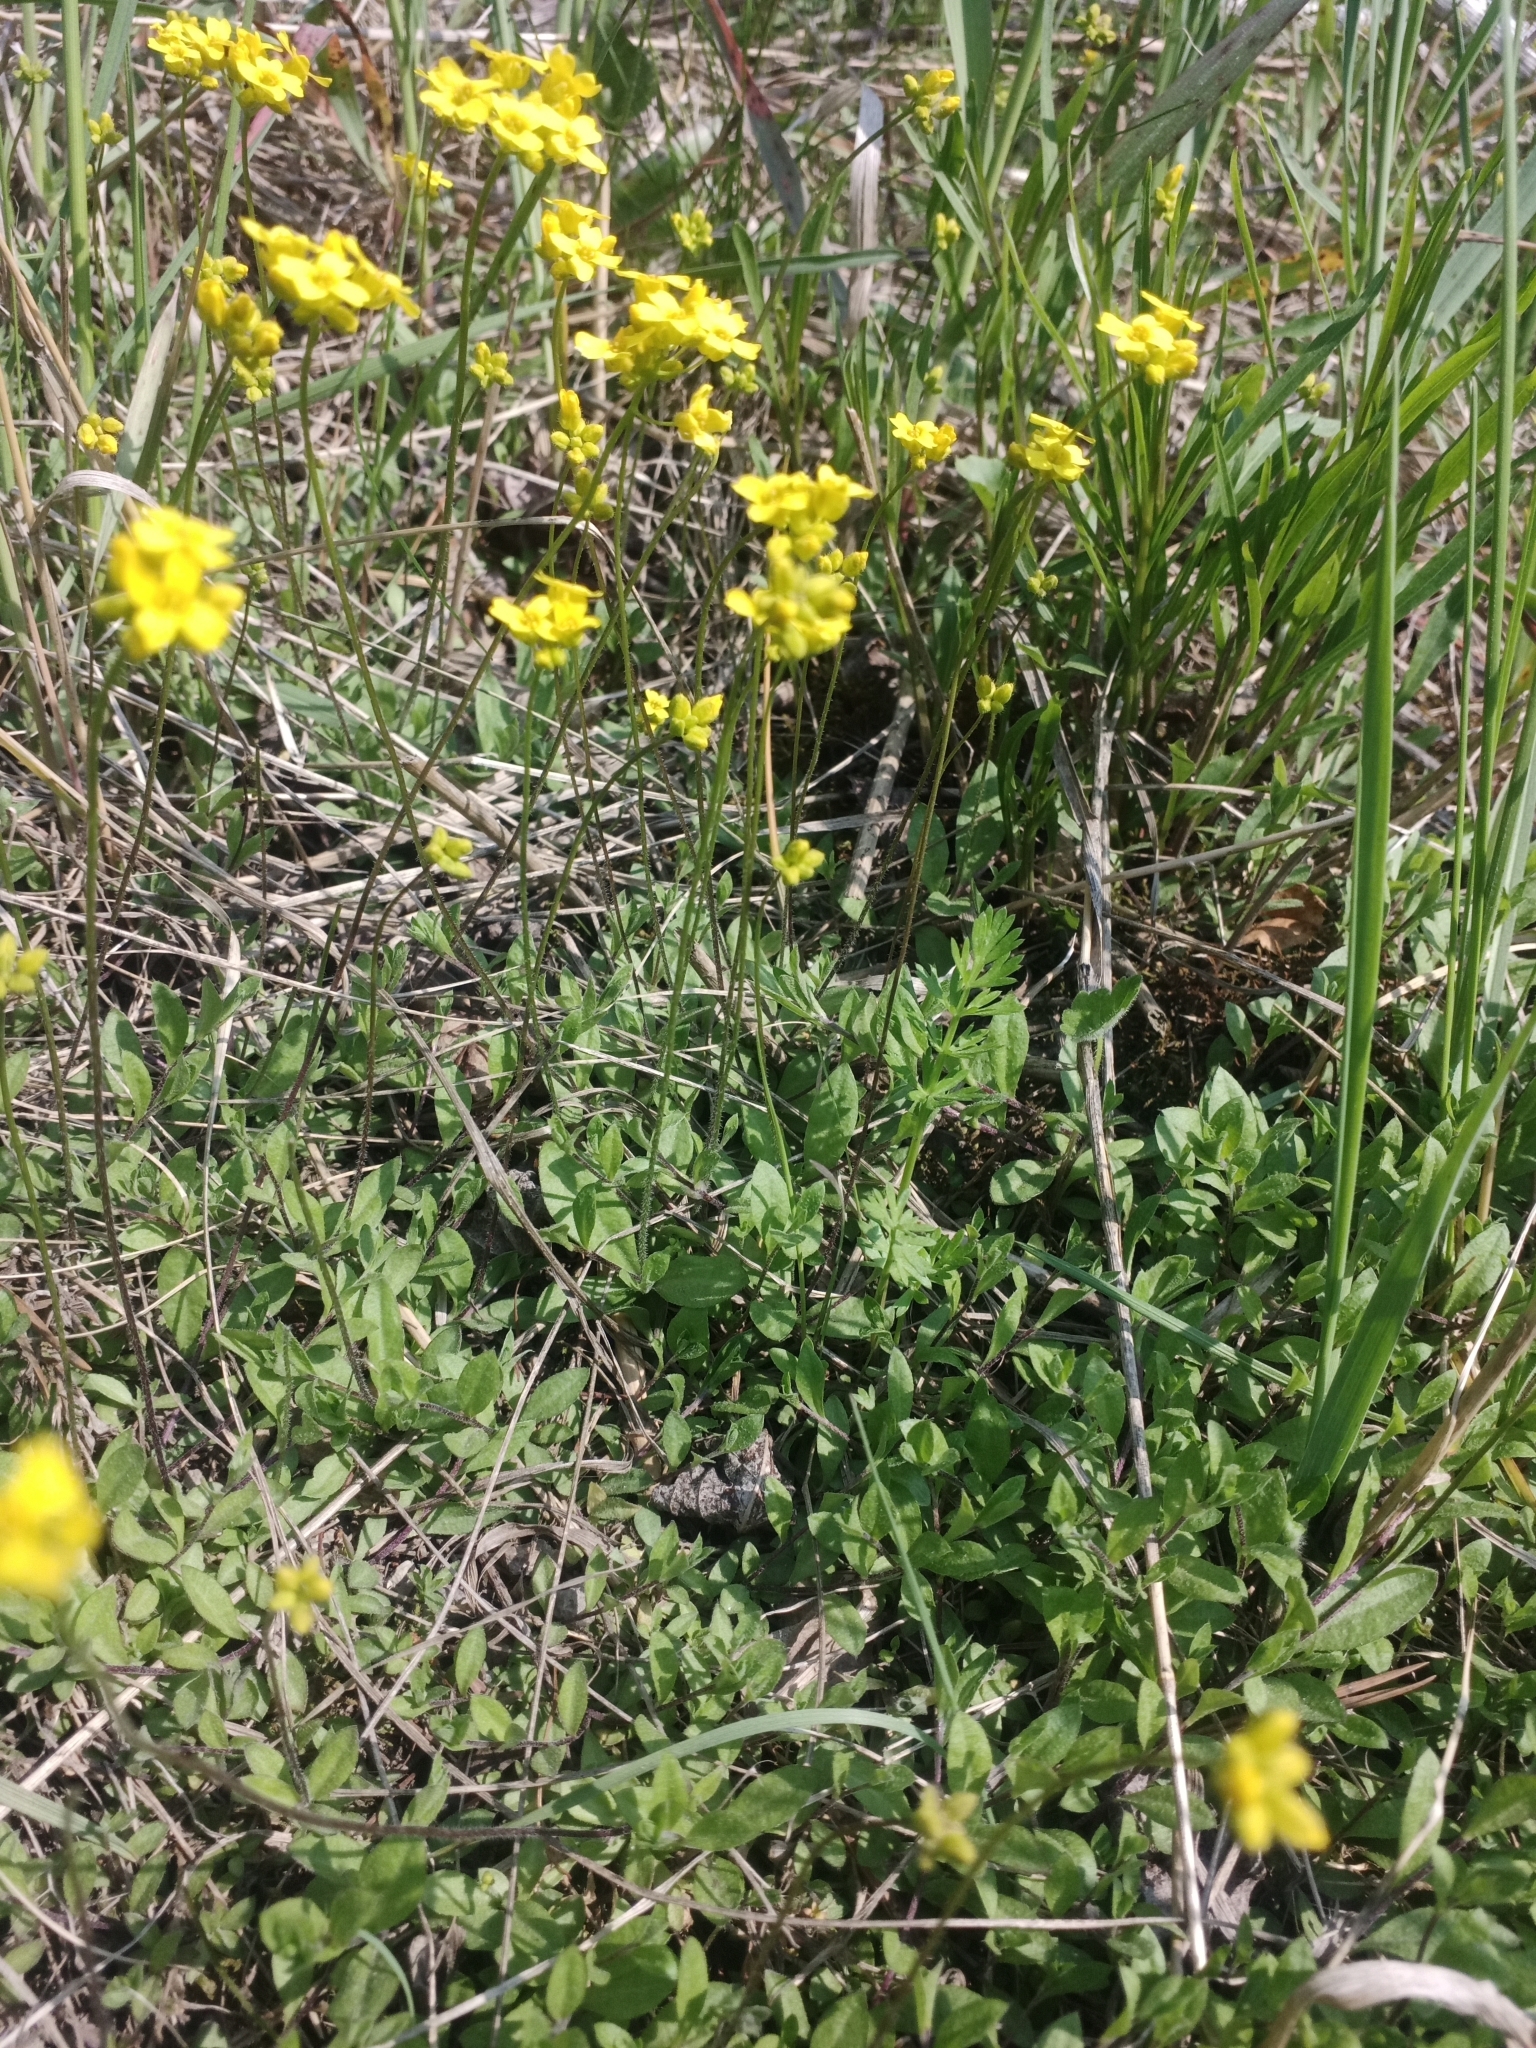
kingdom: Plantae
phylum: Tracheophyta
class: Magnoliopsida
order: Brassicales
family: Brassicaceae
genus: Draba
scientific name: Draba sibirica
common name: Siberian draba
